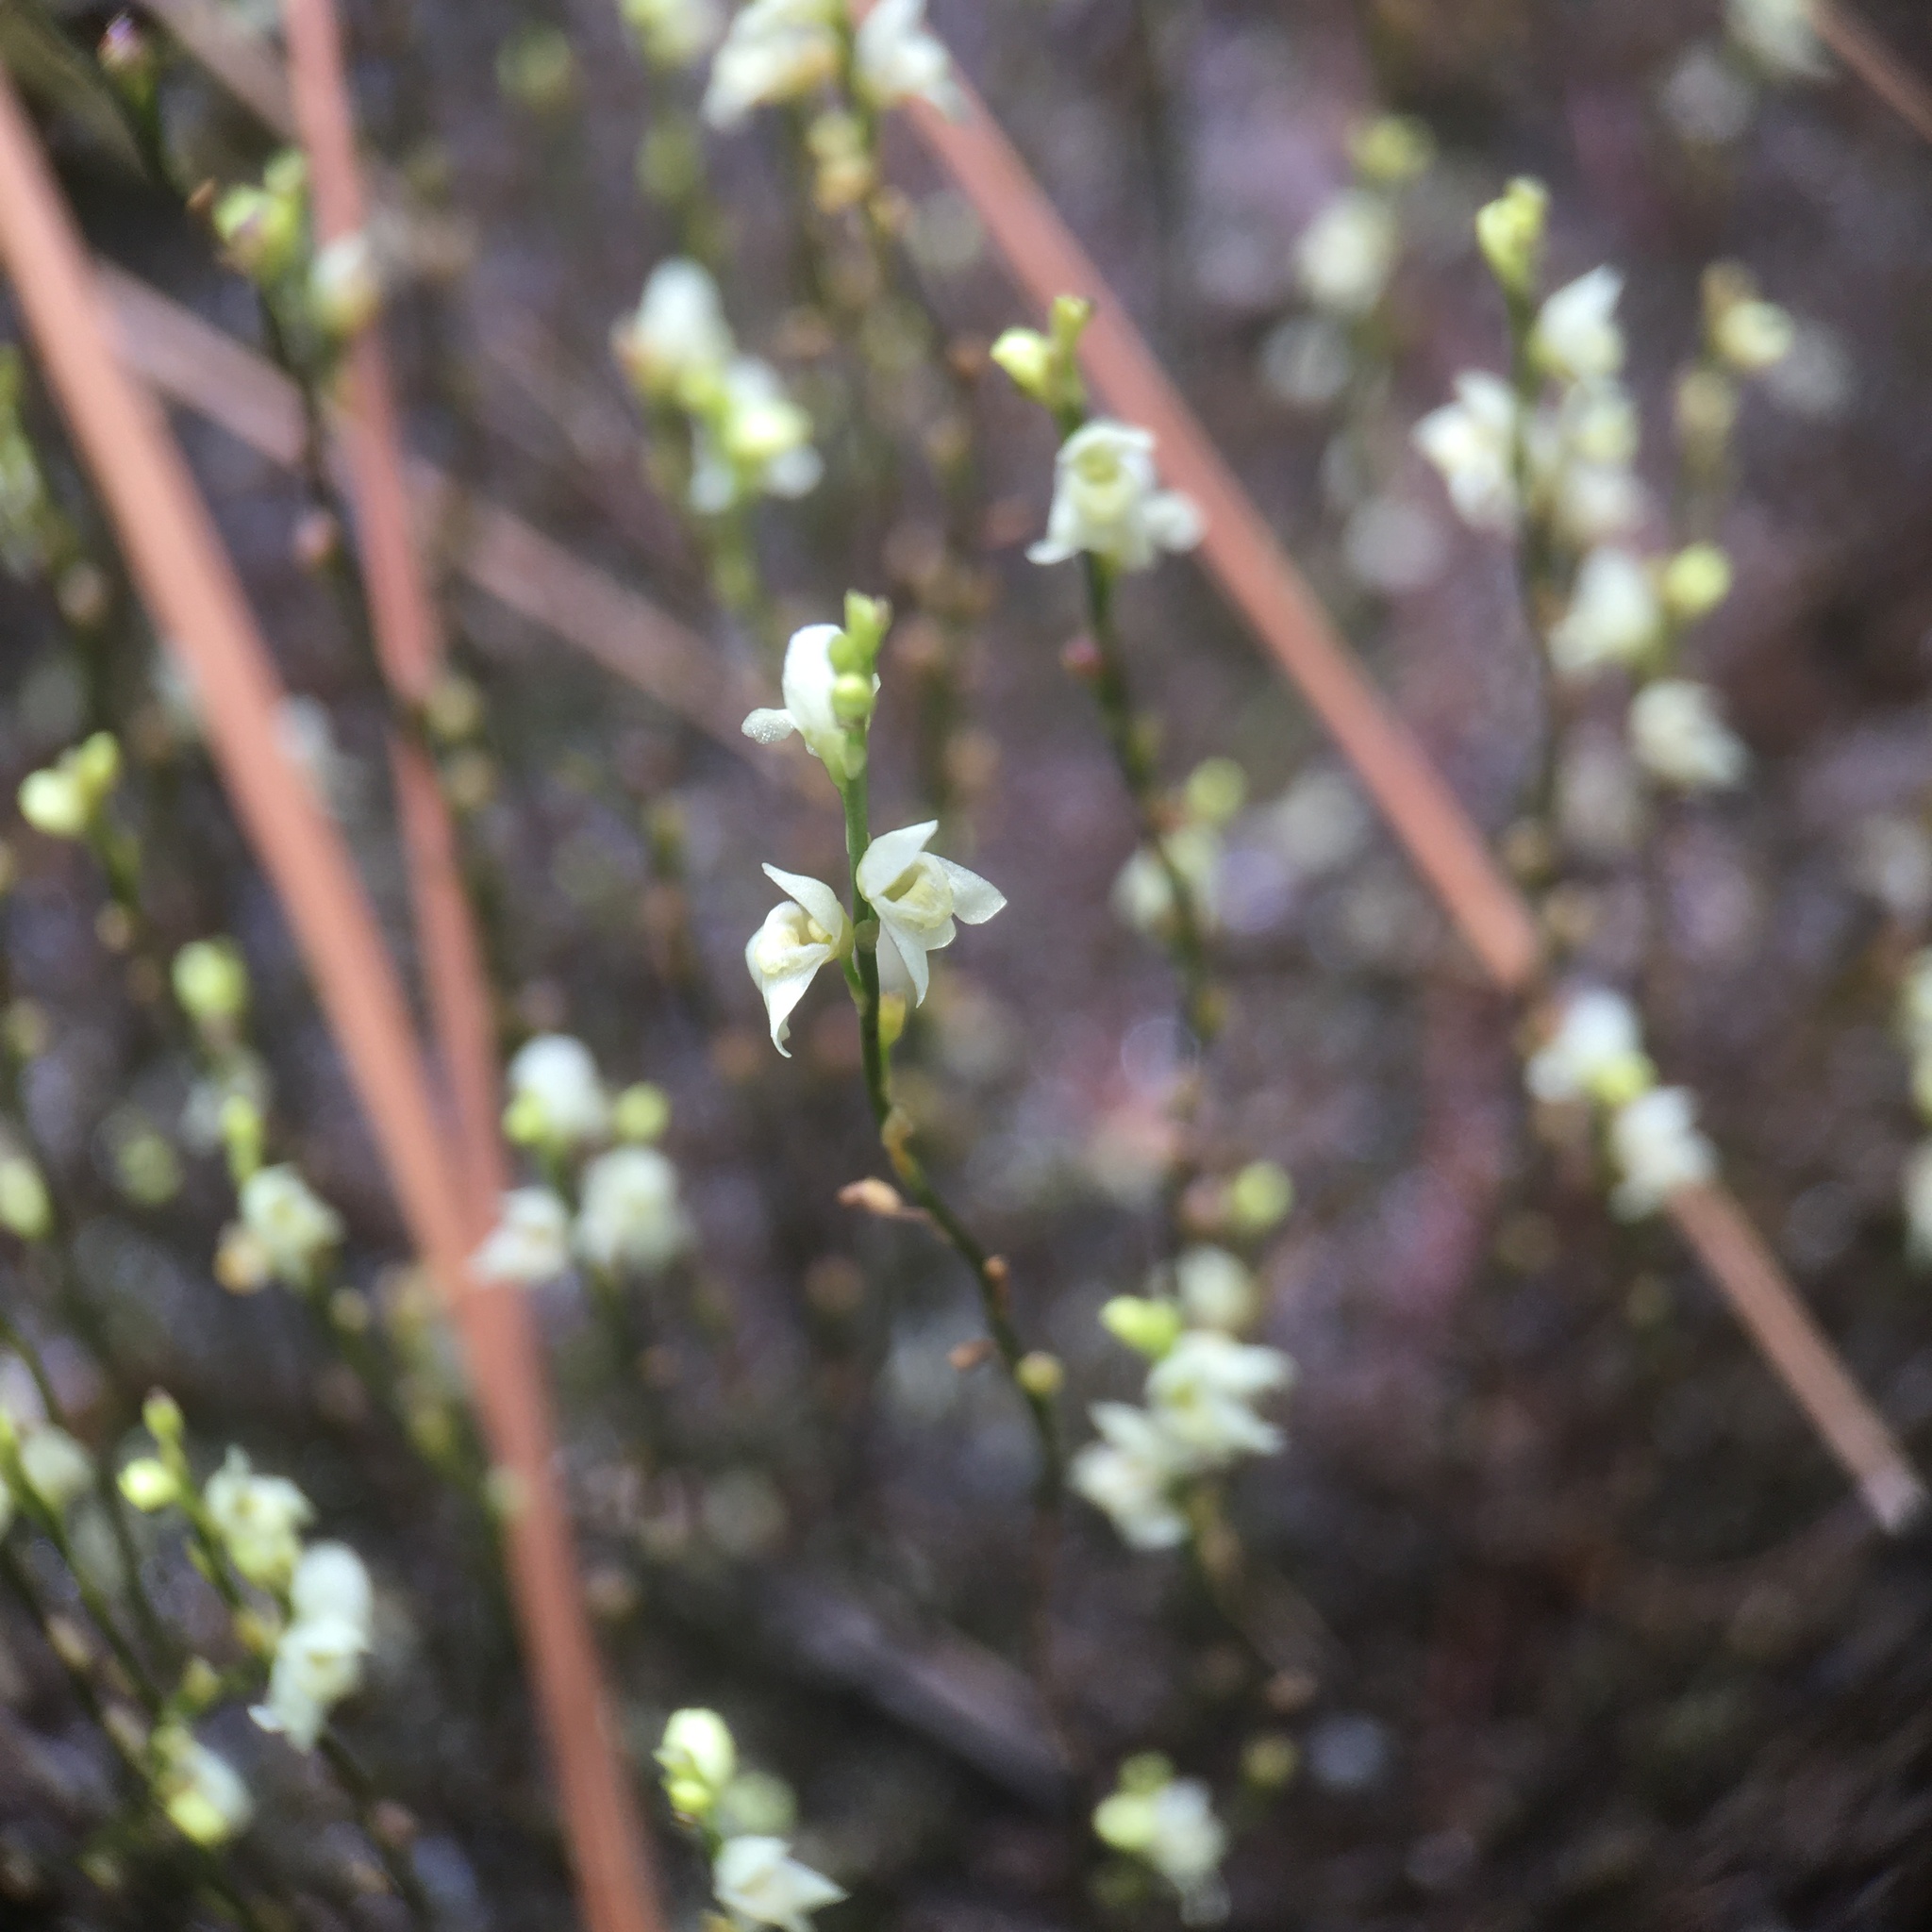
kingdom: Plantae
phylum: Tracheophyta
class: Magnoliopsida
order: Lamiales
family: Lentibulariaceae
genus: Utricularia
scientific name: Utricularia neottioides
